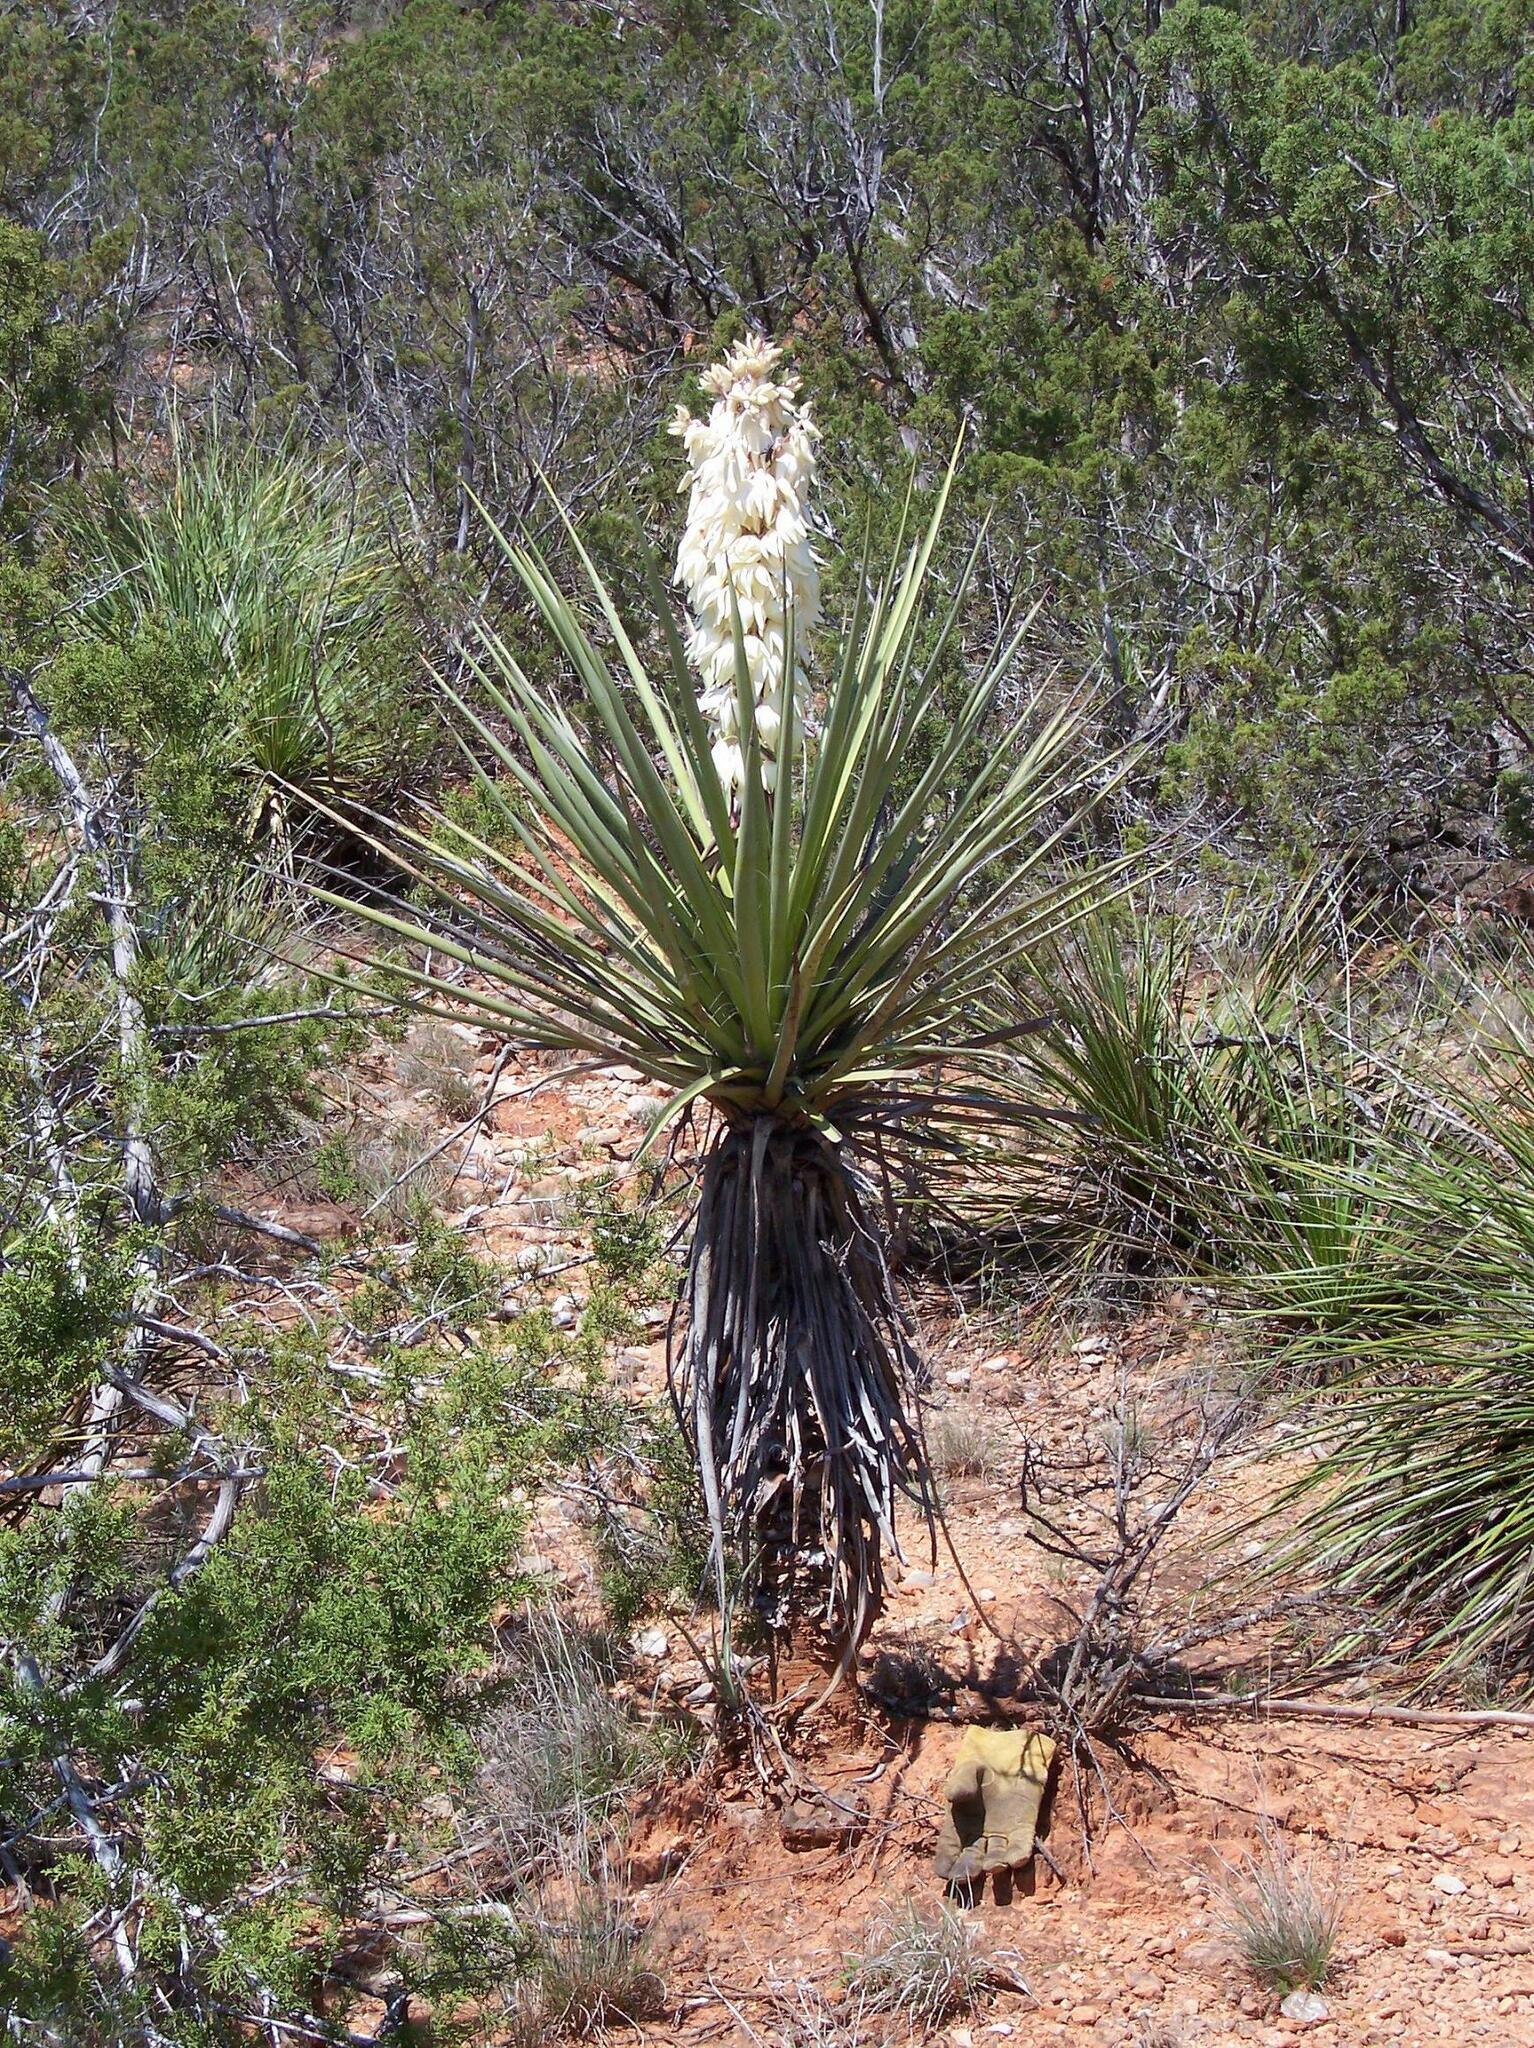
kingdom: Plantae
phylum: Tracheophyta
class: Liliopsida
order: Asparagales
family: Asparagaceae
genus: Yucca
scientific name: Yucca treculiana
